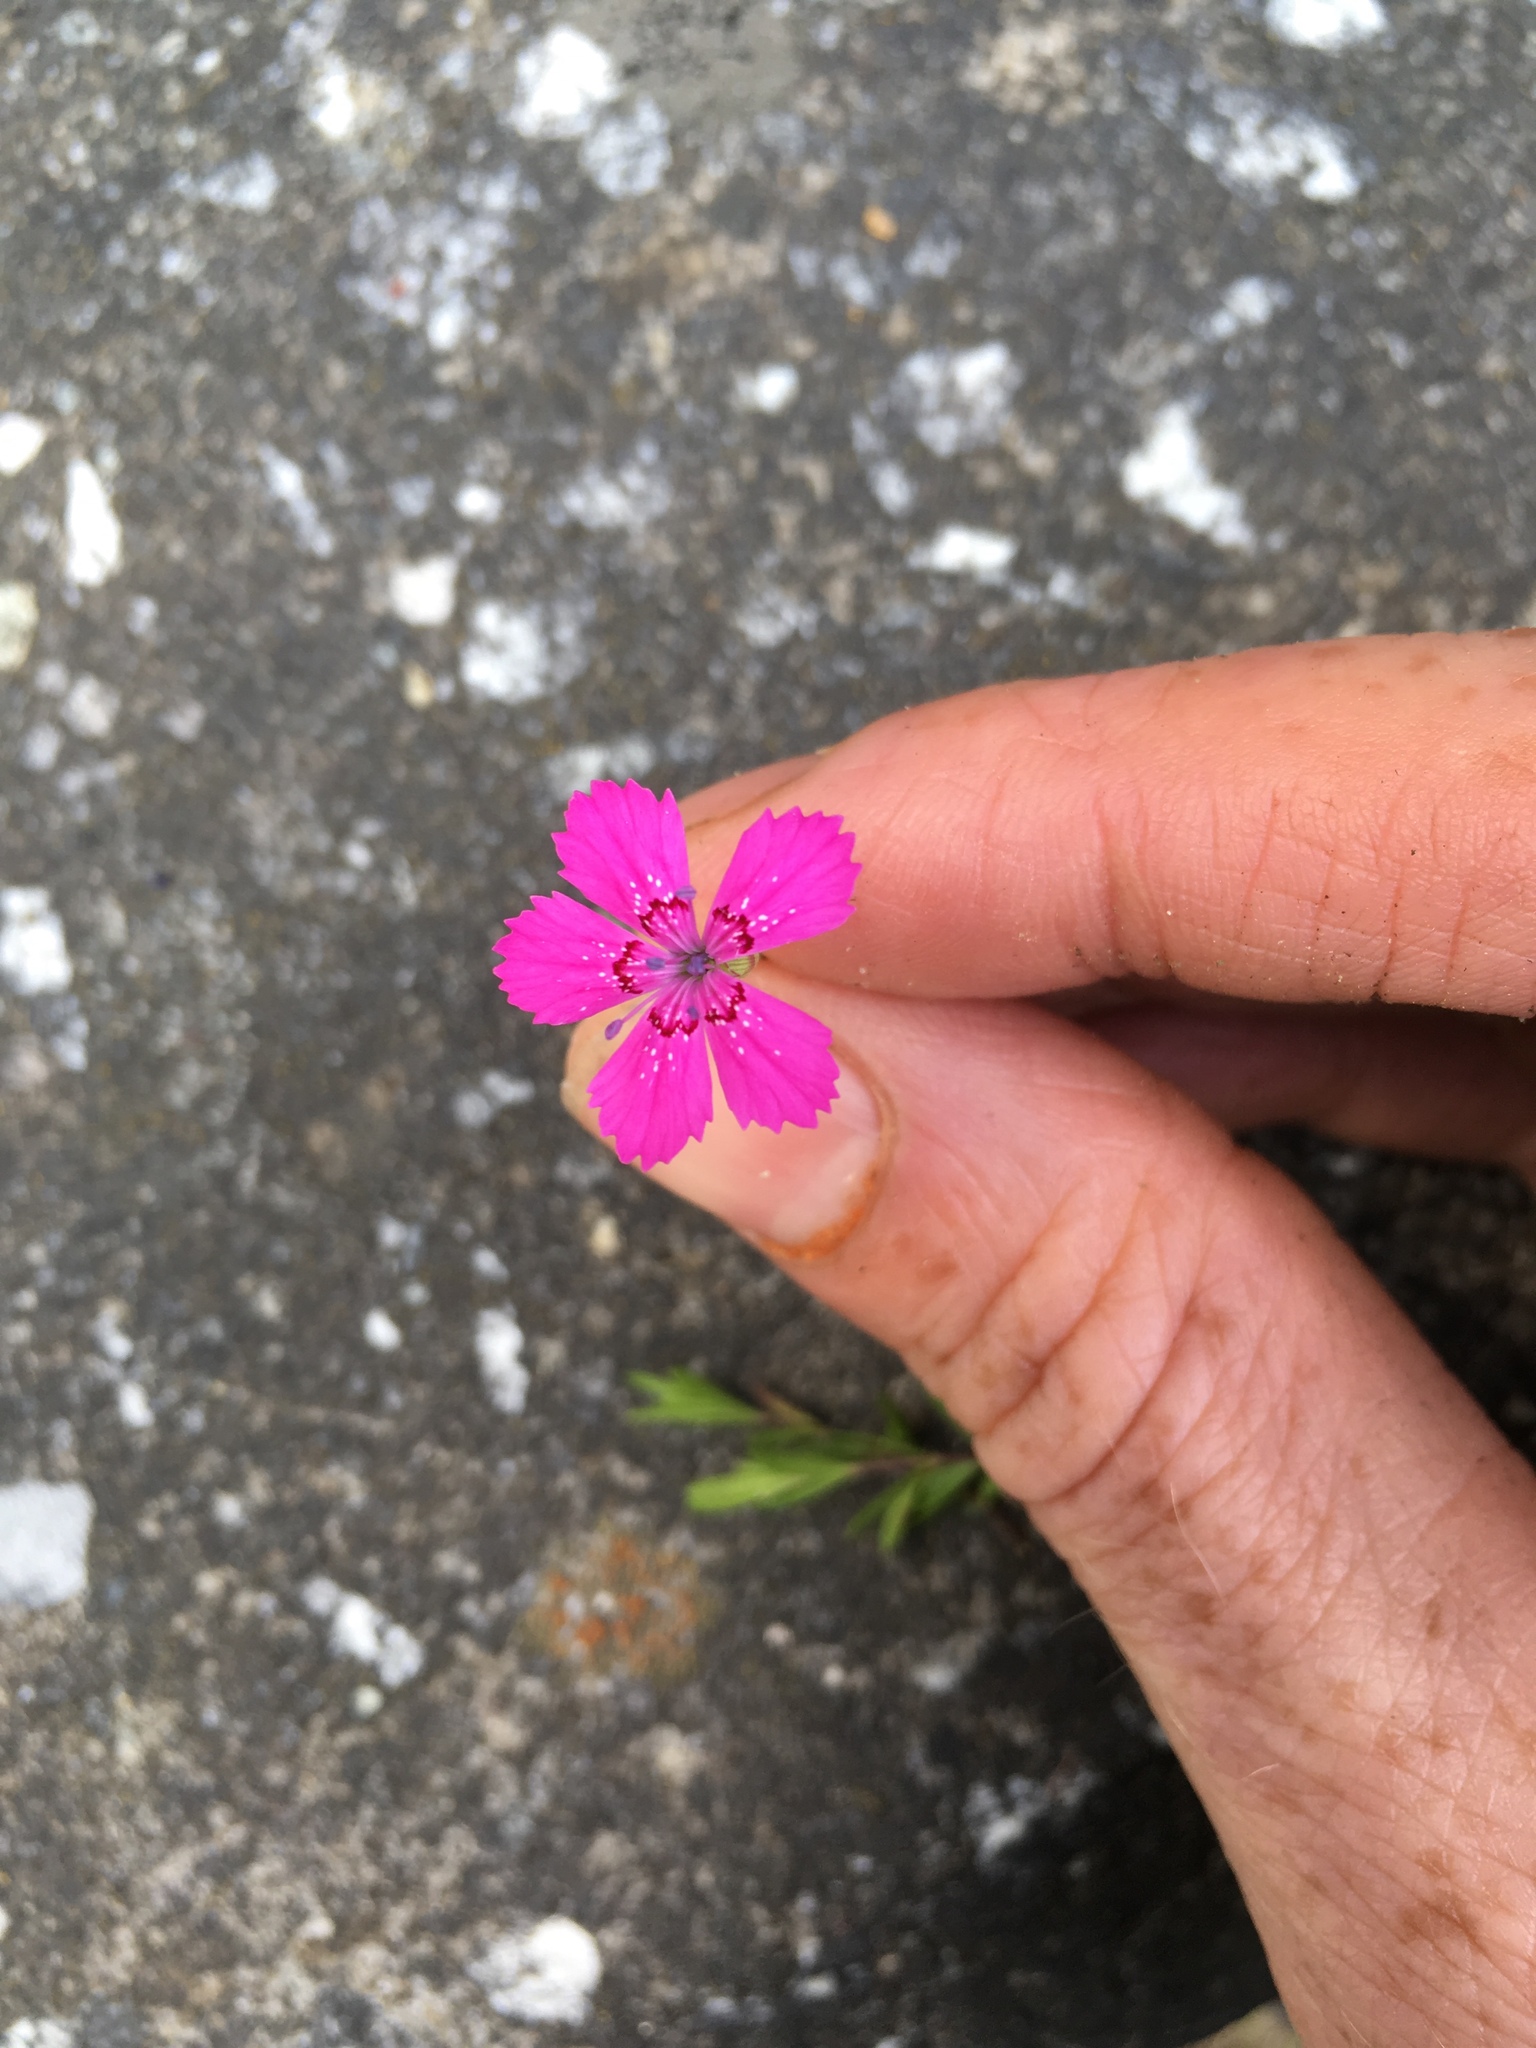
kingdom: Plantae
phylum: Tracheophyta
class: Magnoliopsida
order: Caryophyllales
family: Caryophyllaceae
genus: Dianthus
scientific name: Dianthus deltoides
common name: Maiden pink
